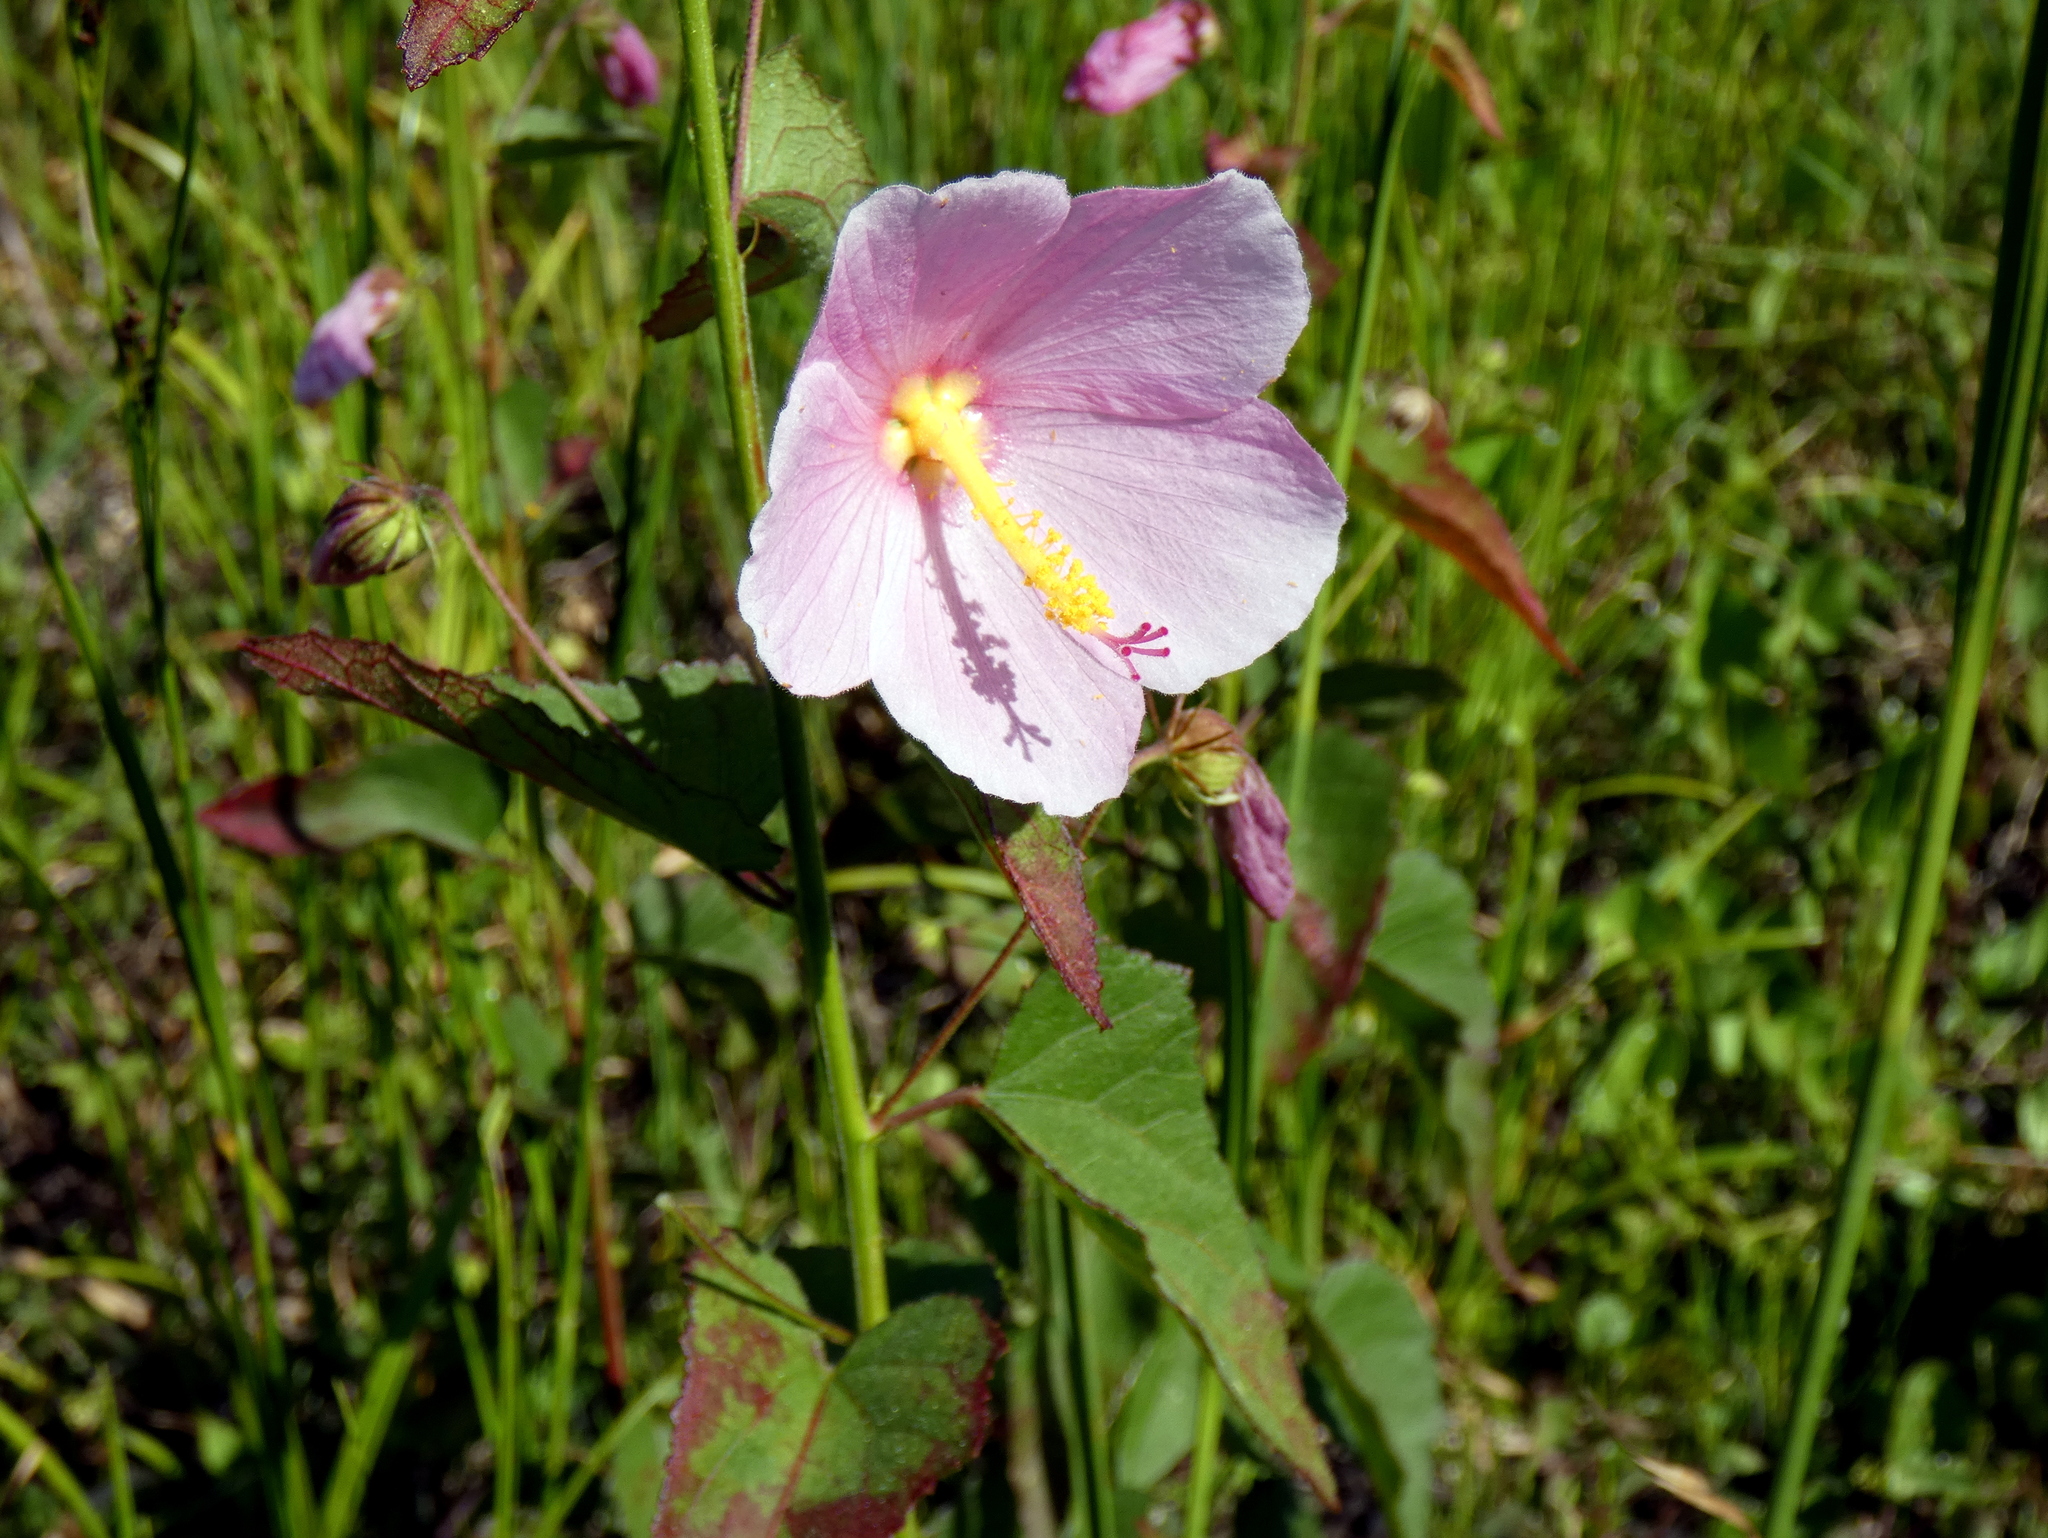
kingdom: Plantae
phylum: Tracheophyta
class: Magnoliopsida
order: Malvales
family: Malvaceae
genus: Kosteletzkya
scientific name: Kosteletzkya pentacarpos
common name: Virginia saltmarsh mallow
